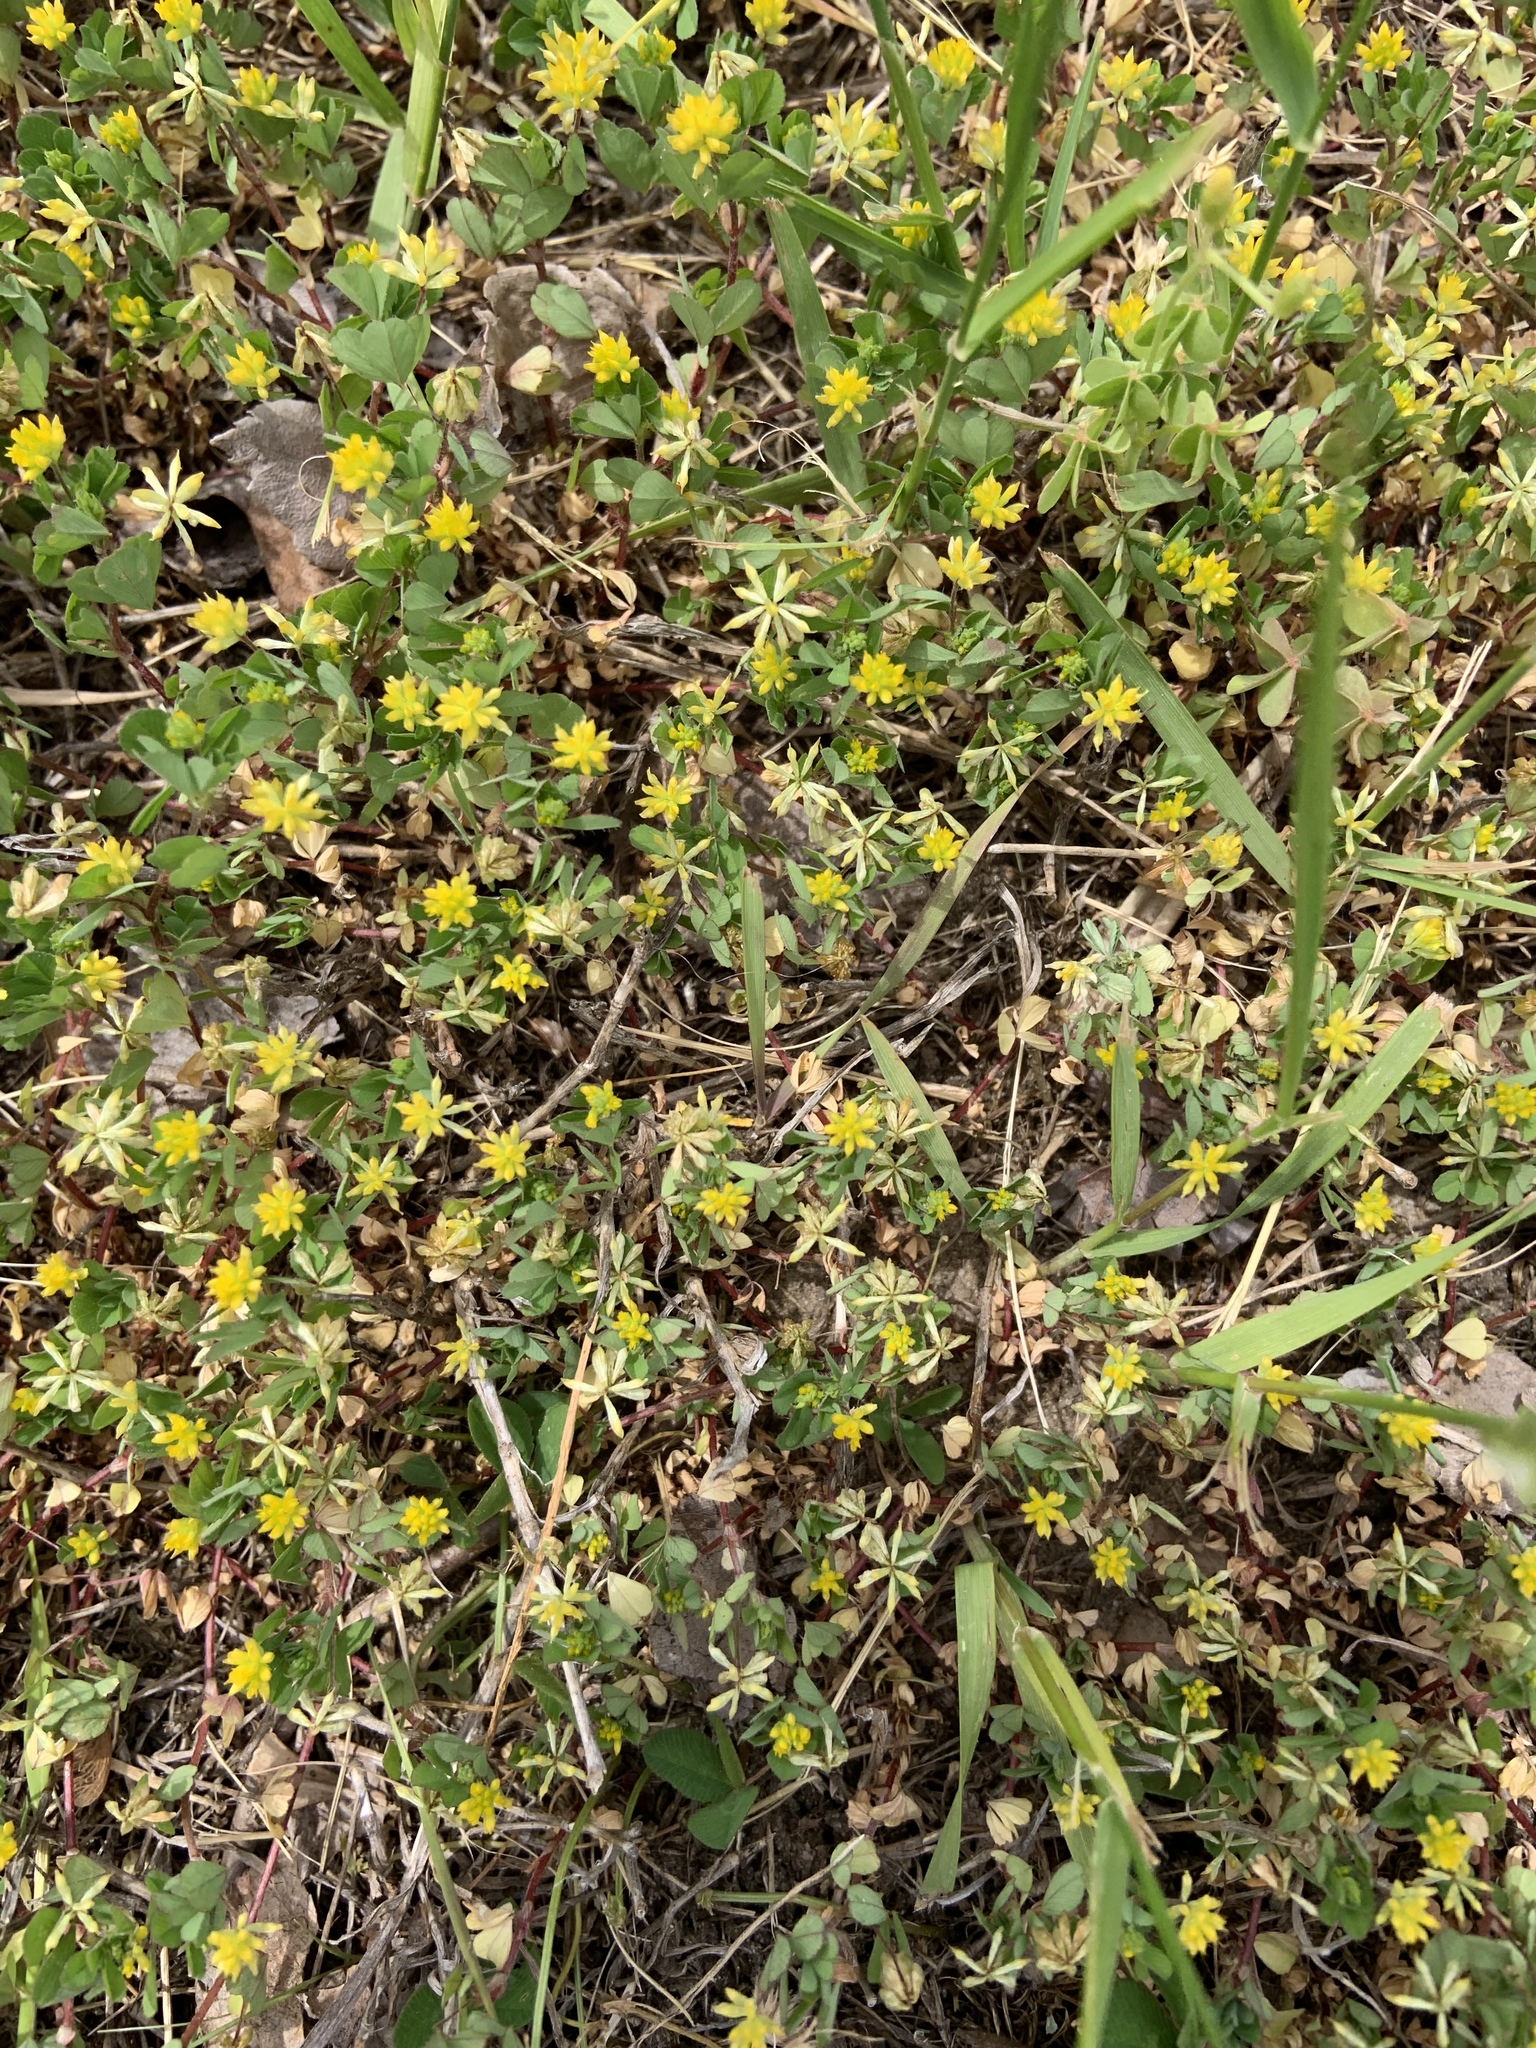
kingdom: Plantae
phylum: Tracheophyta
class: Magnoliopsida
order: Fabales
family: Fabaceae
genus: Trifolium
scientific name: Trifolium dubium
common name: Suckling clover
